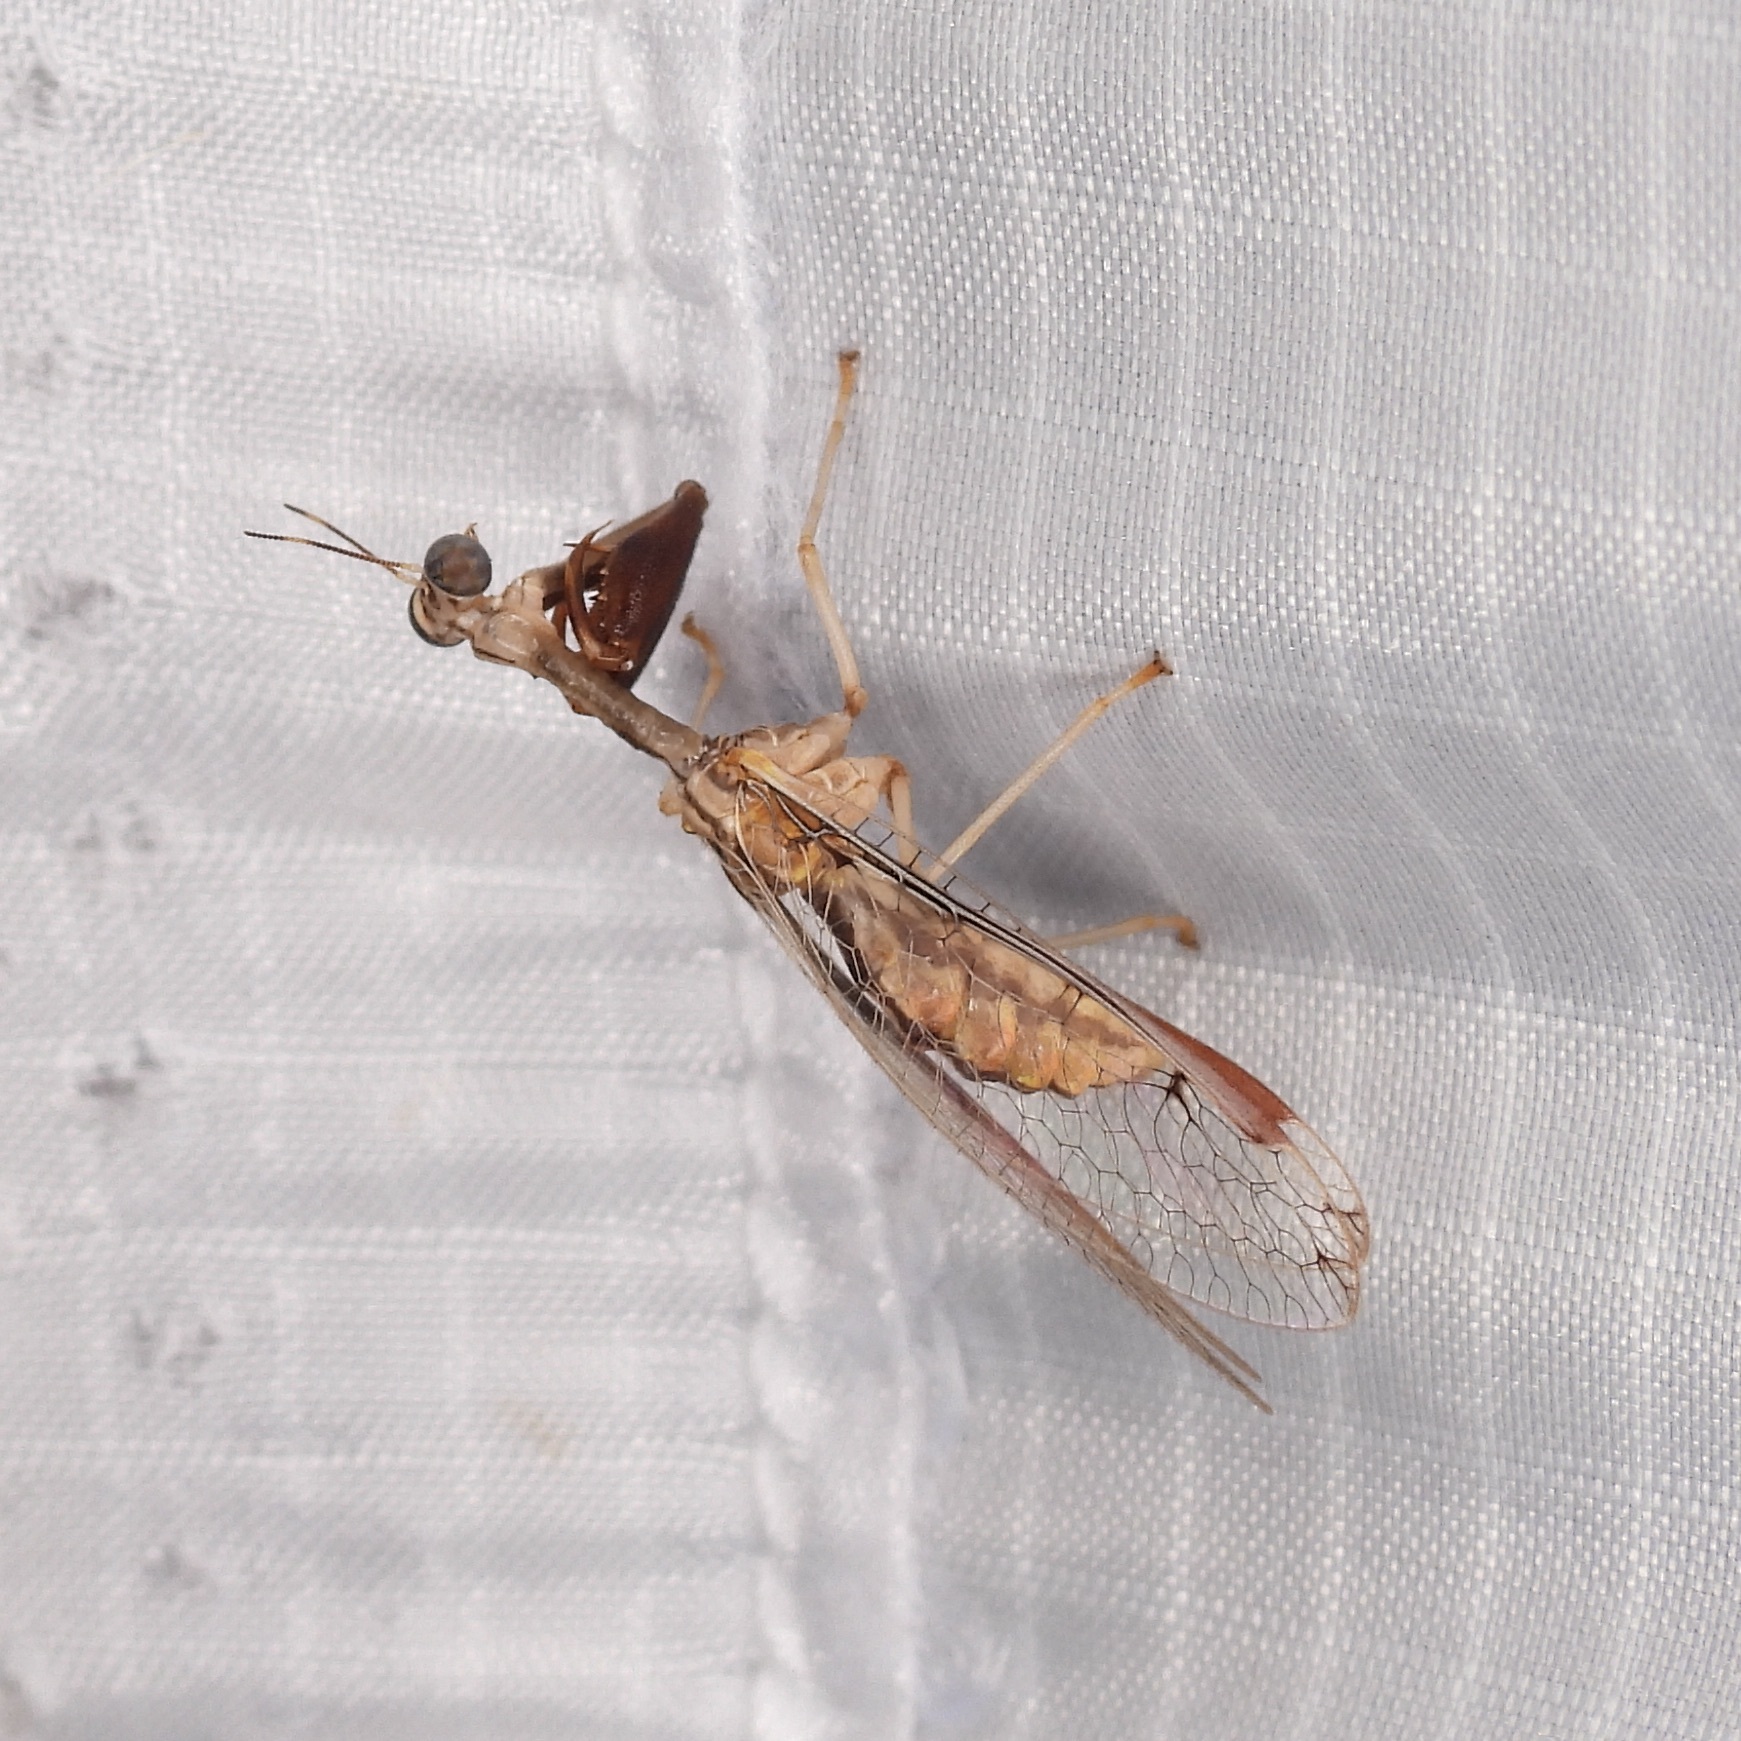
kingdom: Animalia
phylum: Arthropoda
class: Insecta
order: Neuroptera
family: Mantispidae
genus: Dicromantispa
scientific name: Dicromantispa interrupta
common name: Four-spotted mantidfly
